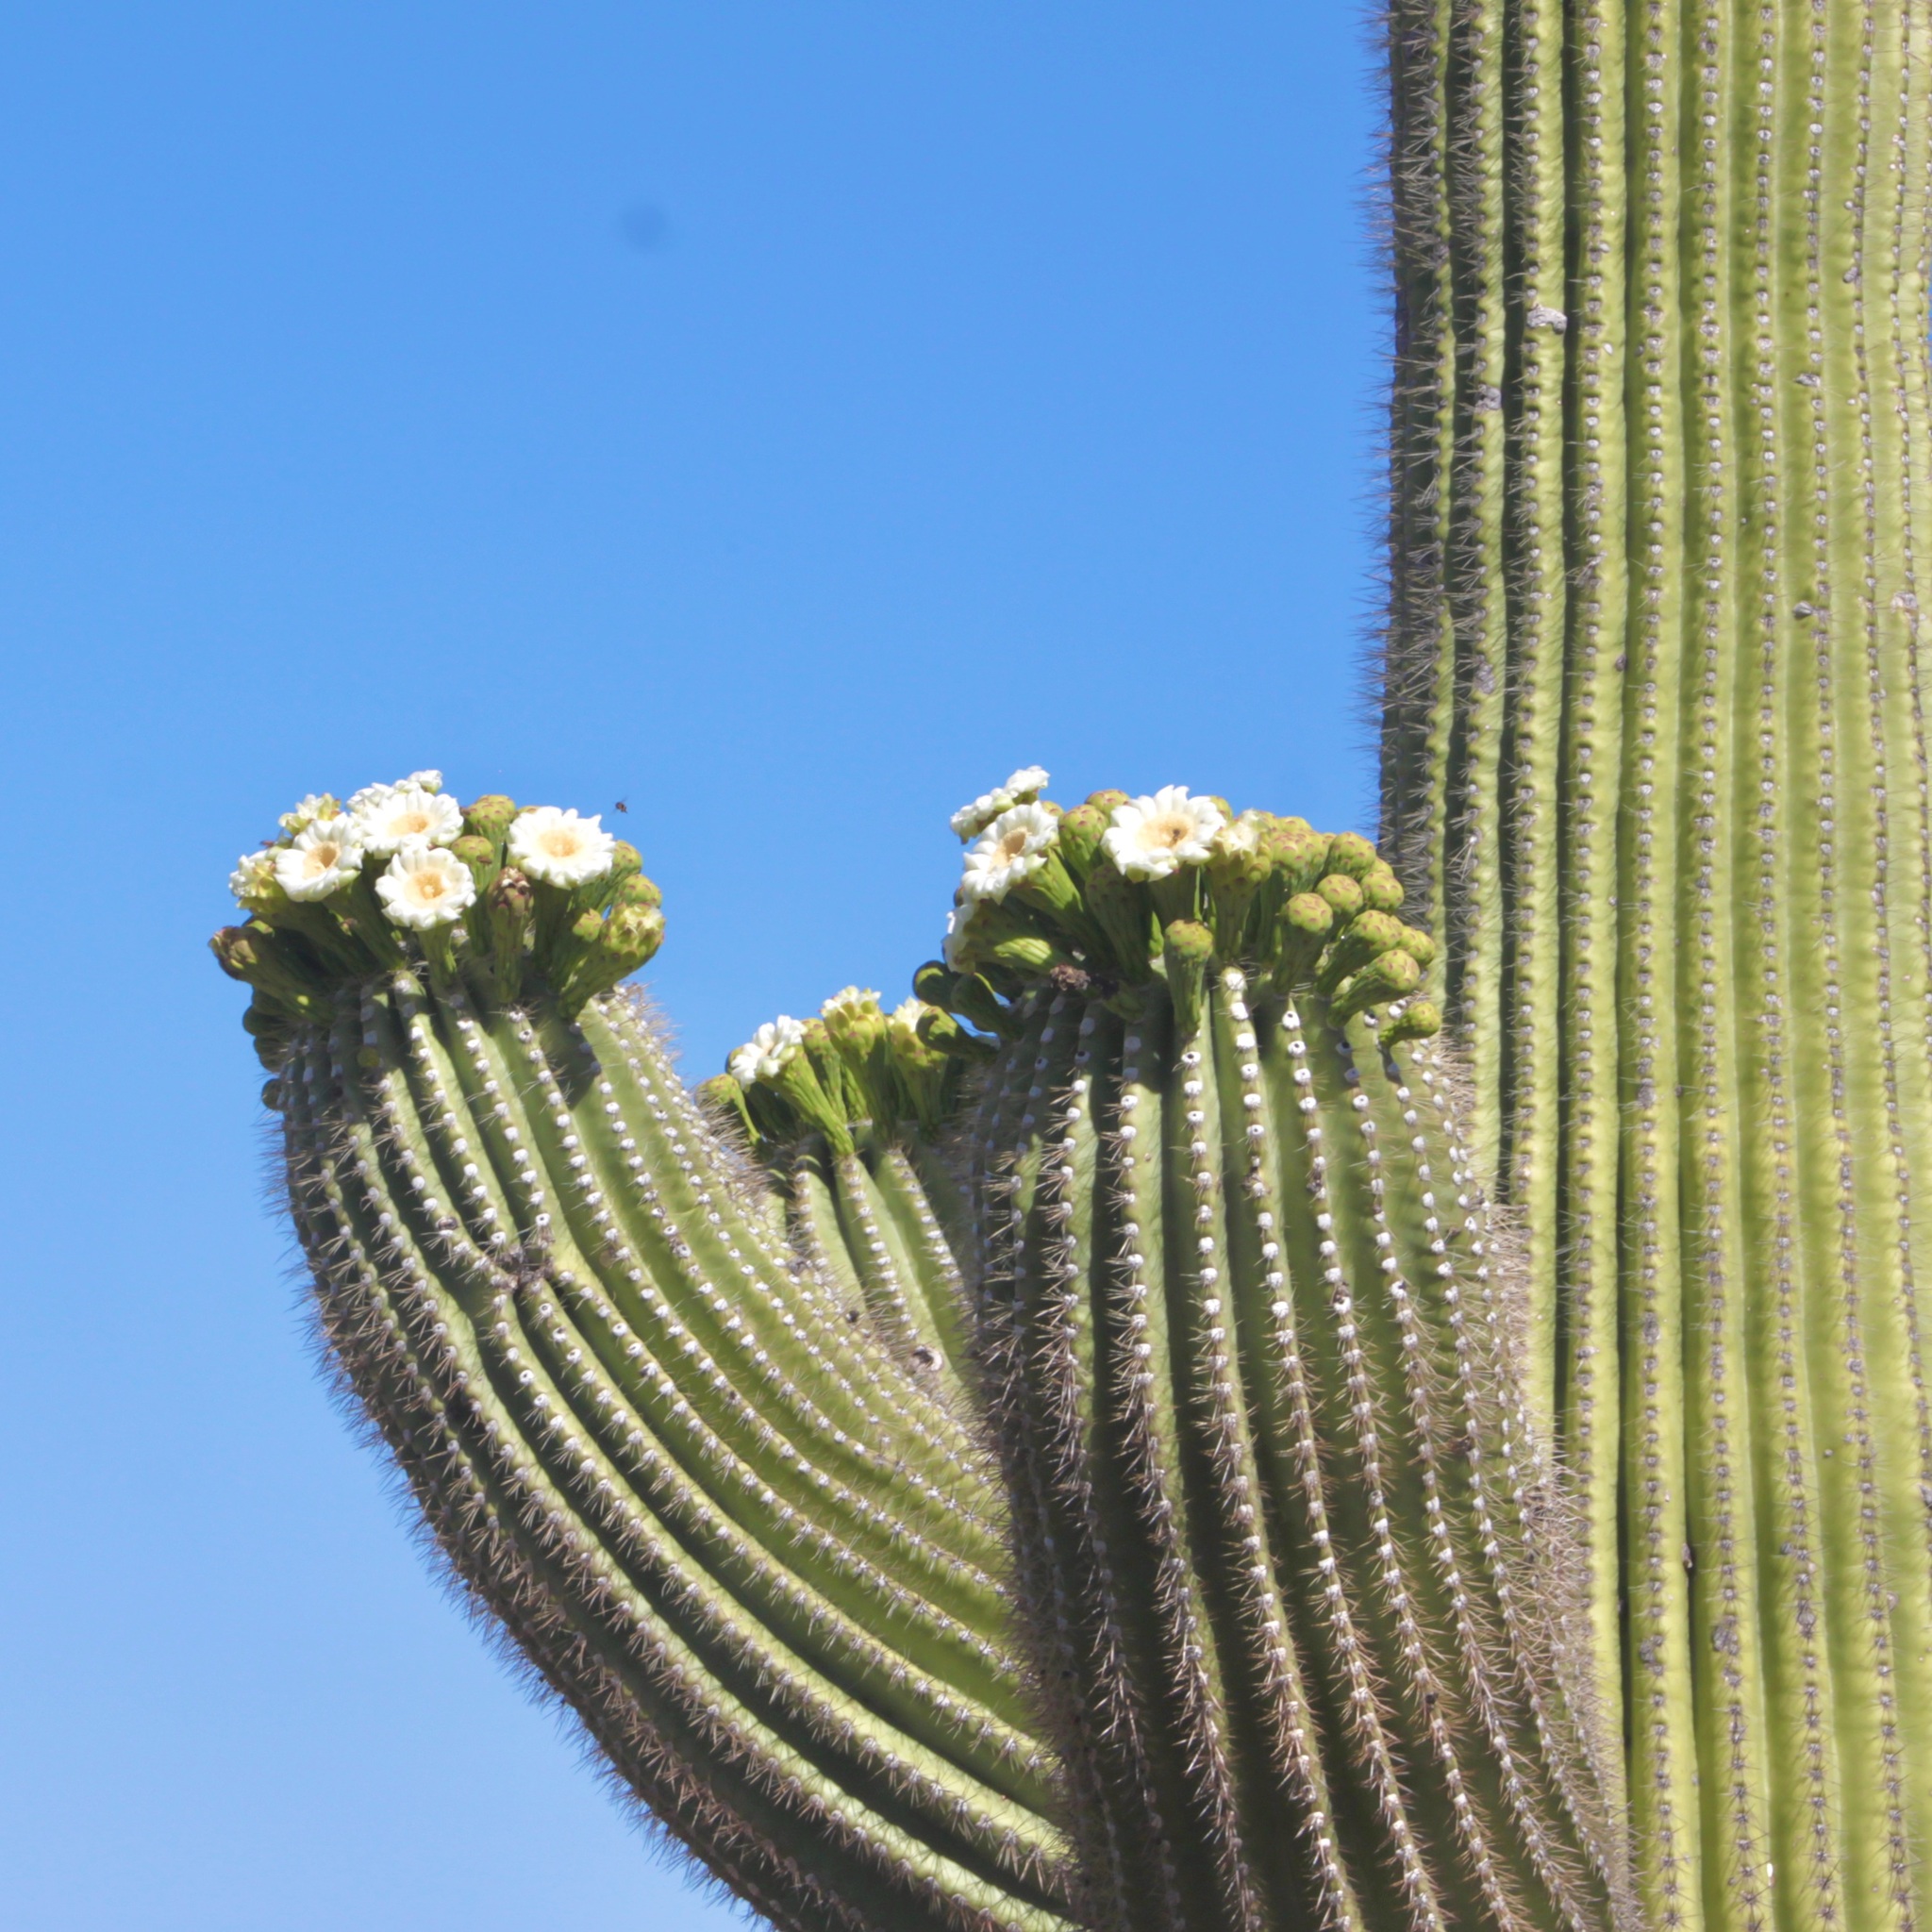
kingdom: Plantae
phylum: Tracheophyta
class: Magnoliopsida
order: Caryophyllales
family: Cactaceae
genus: Carnegiea
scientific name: Carnegiea gigantea
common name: Saguaro
